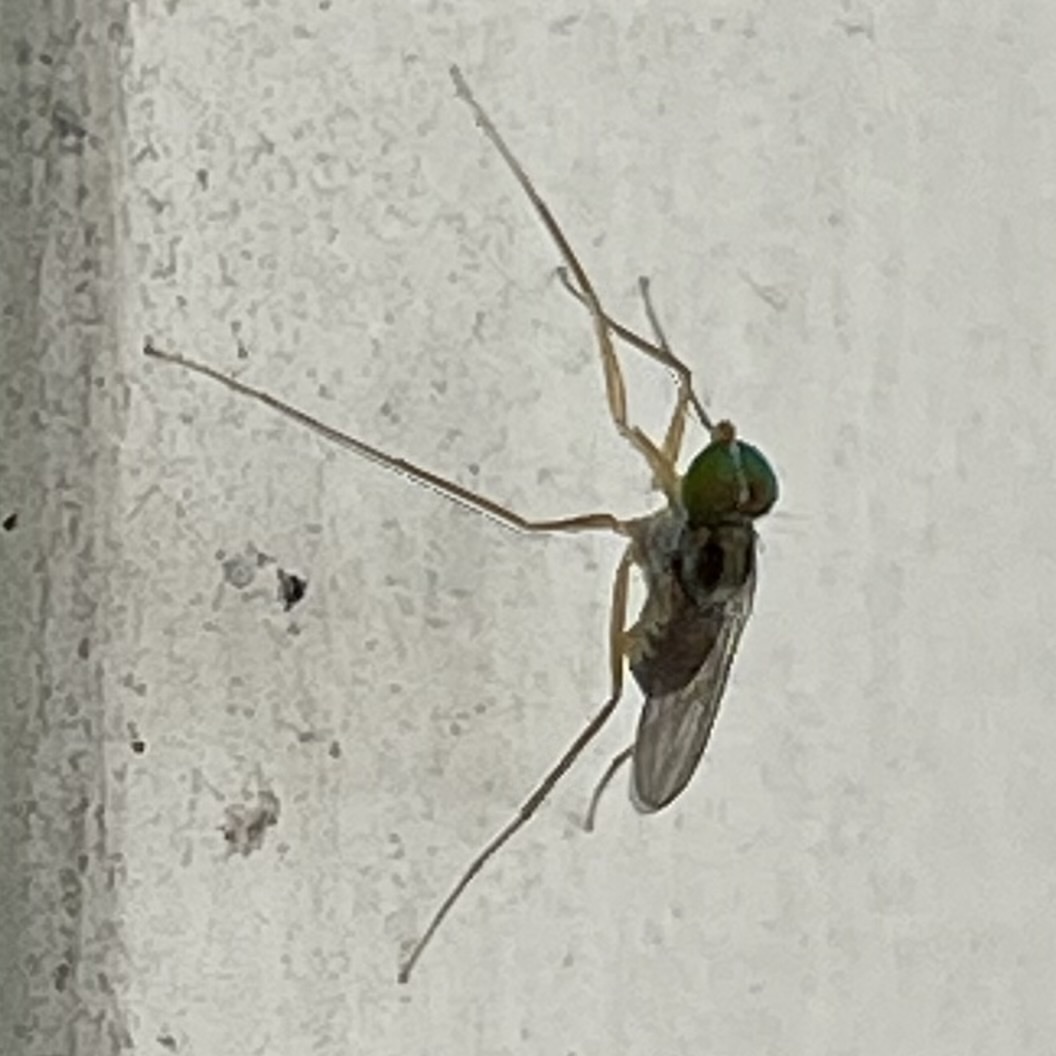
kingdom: Animalia
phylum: Arthropoda
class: Insecta
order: Diptera
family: Dolichopodidae
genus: Dactylomyia
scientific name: Dactylomyia lateralis
